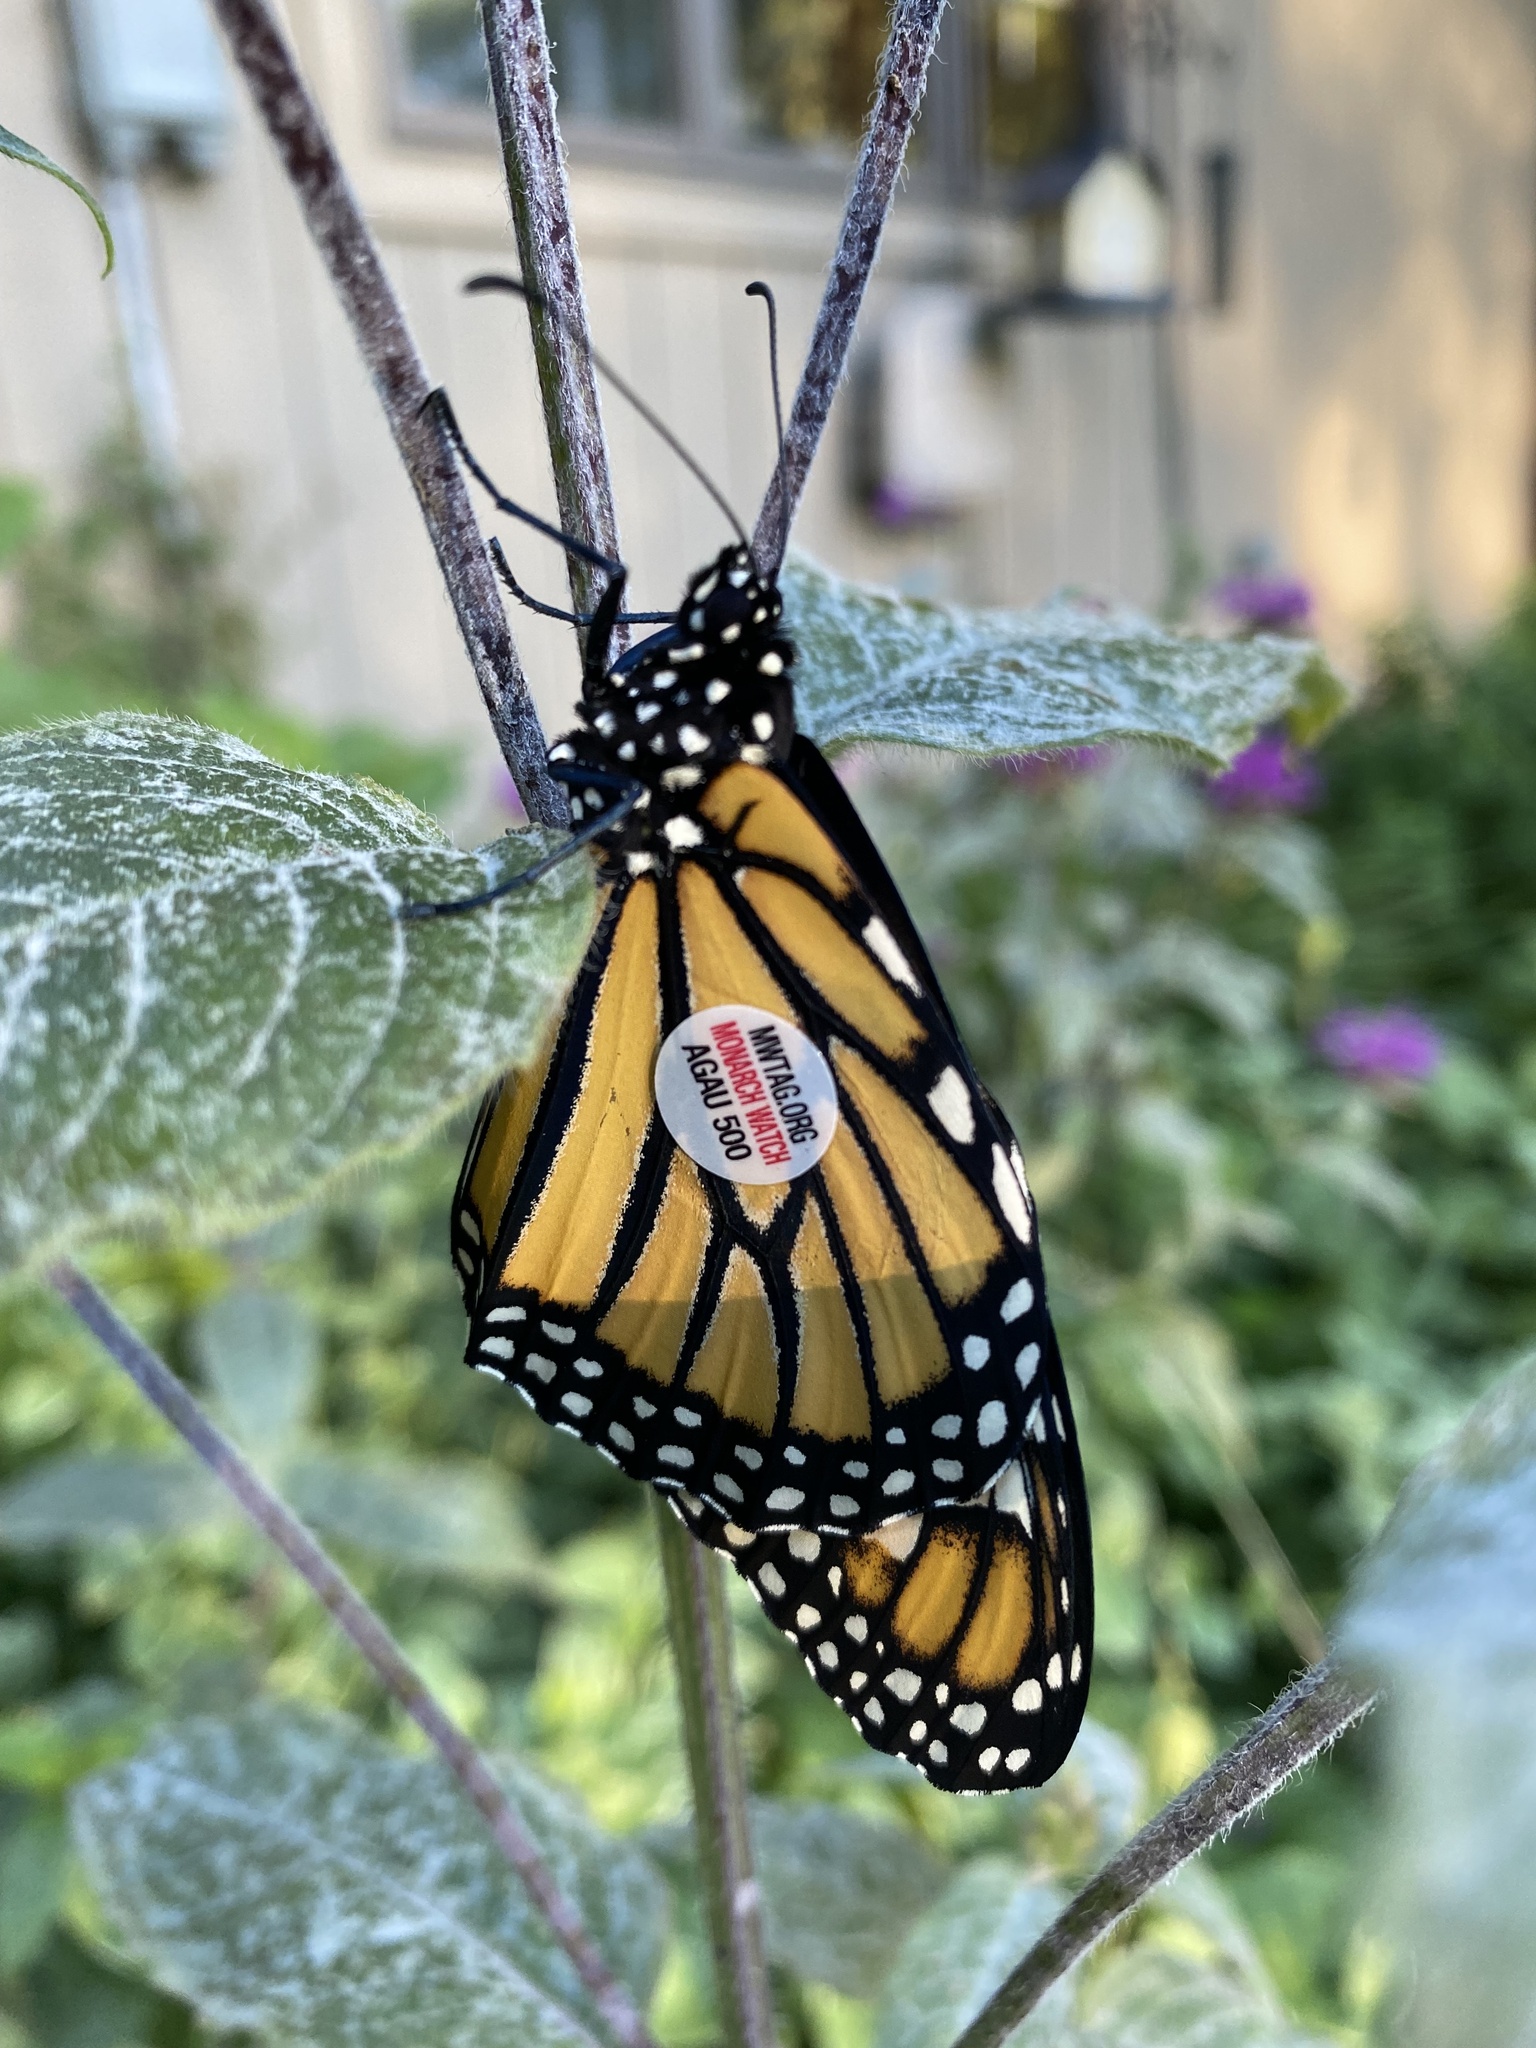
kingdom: Animalia
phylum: Arthropoda
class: Insecta
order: Lepidoptera
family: Nymphalidae
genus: Danaus
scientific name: Danaus plexippus
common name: Monarch
